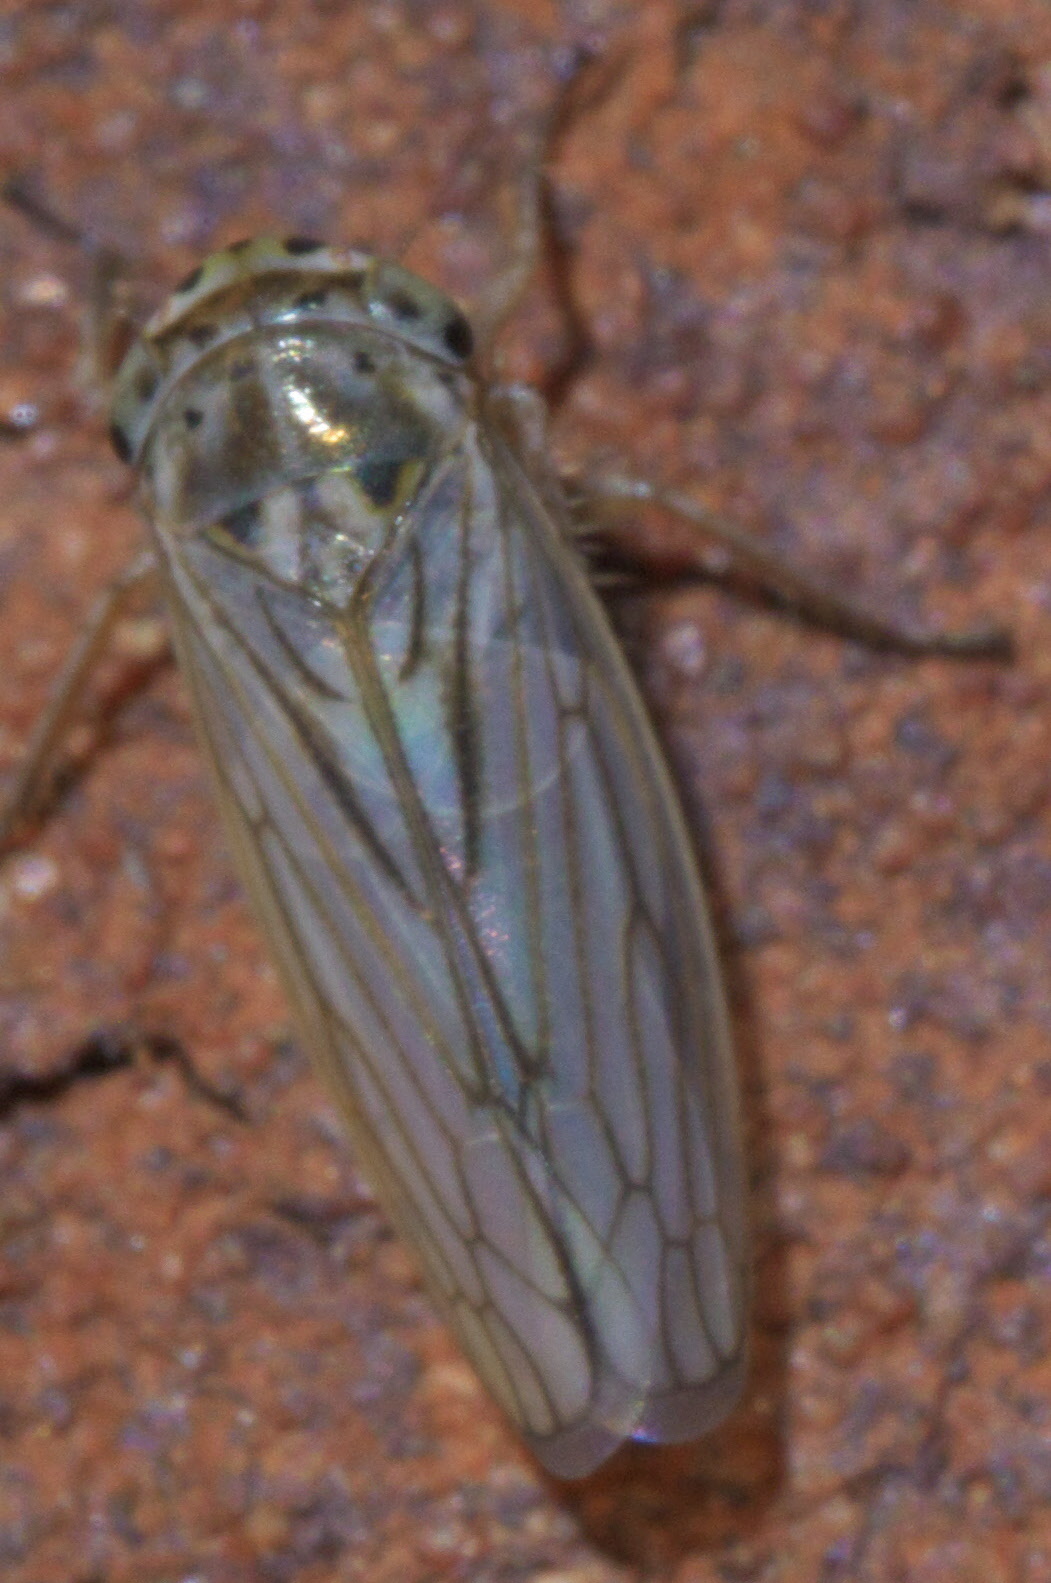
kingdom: Animalia
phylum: Arthropoda
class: Insecta
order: Hemiptera
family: Cicadellidae
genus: Exitianus
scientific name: Exitianus exitiosus
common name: Gray lawn leafhopper
